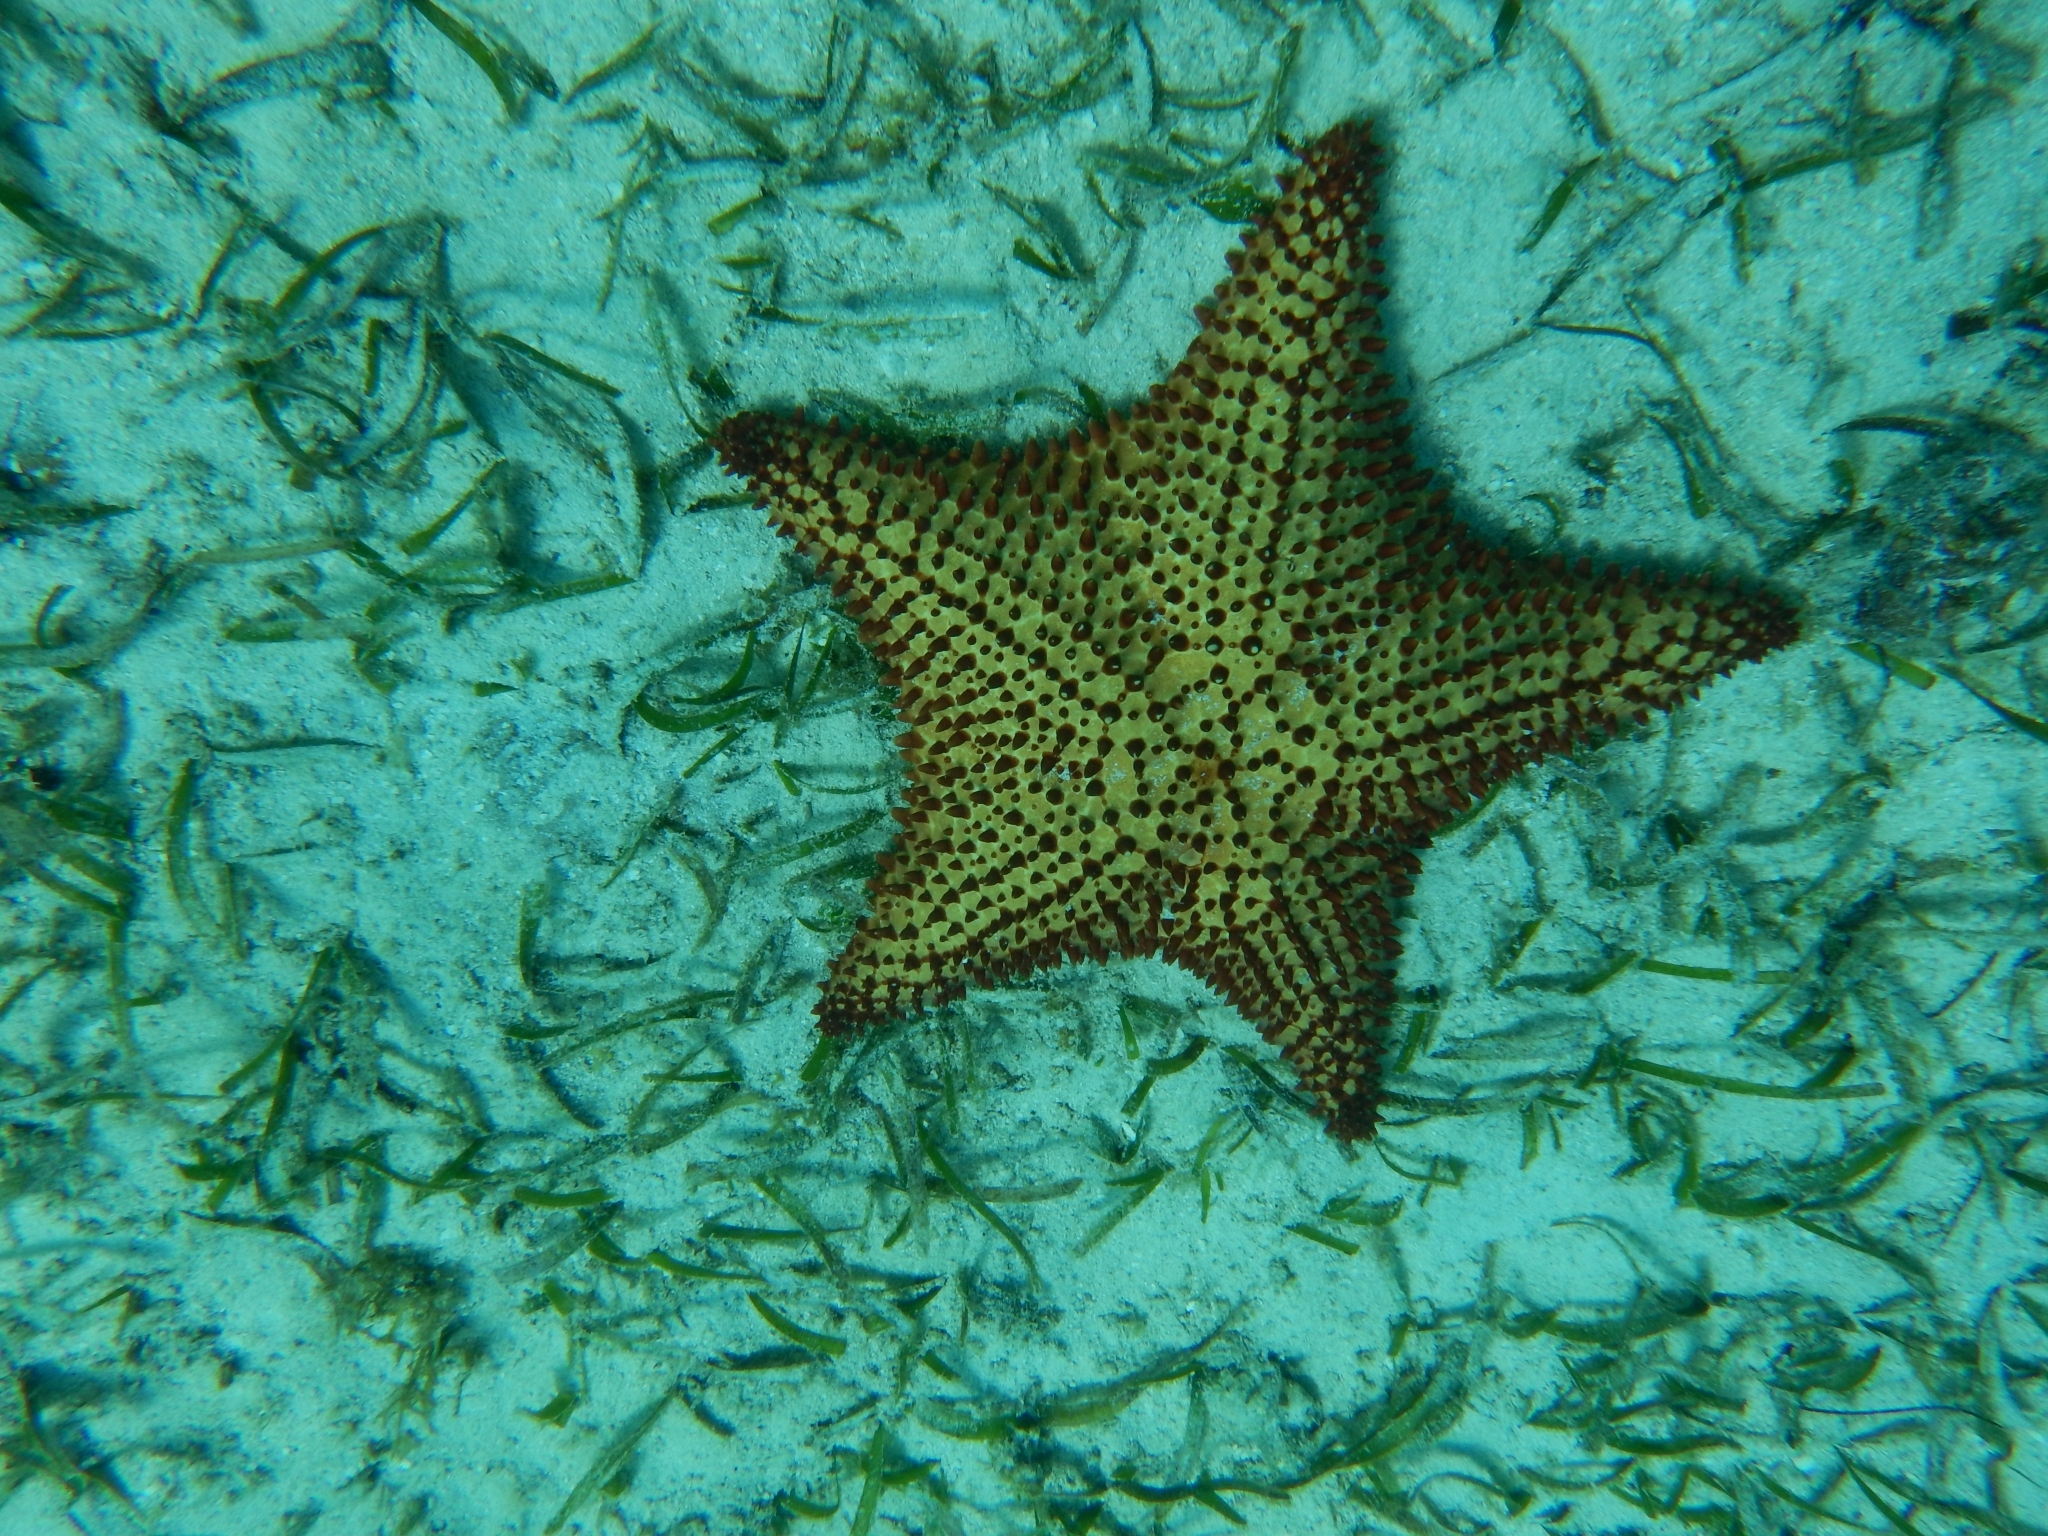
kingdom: Animalia
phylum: Echinodermata
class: Asteroidea
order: Valvatida
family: Oreasteridae
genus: Oreaster
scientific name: Oreaster reticulatus
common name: Cushion sea star
